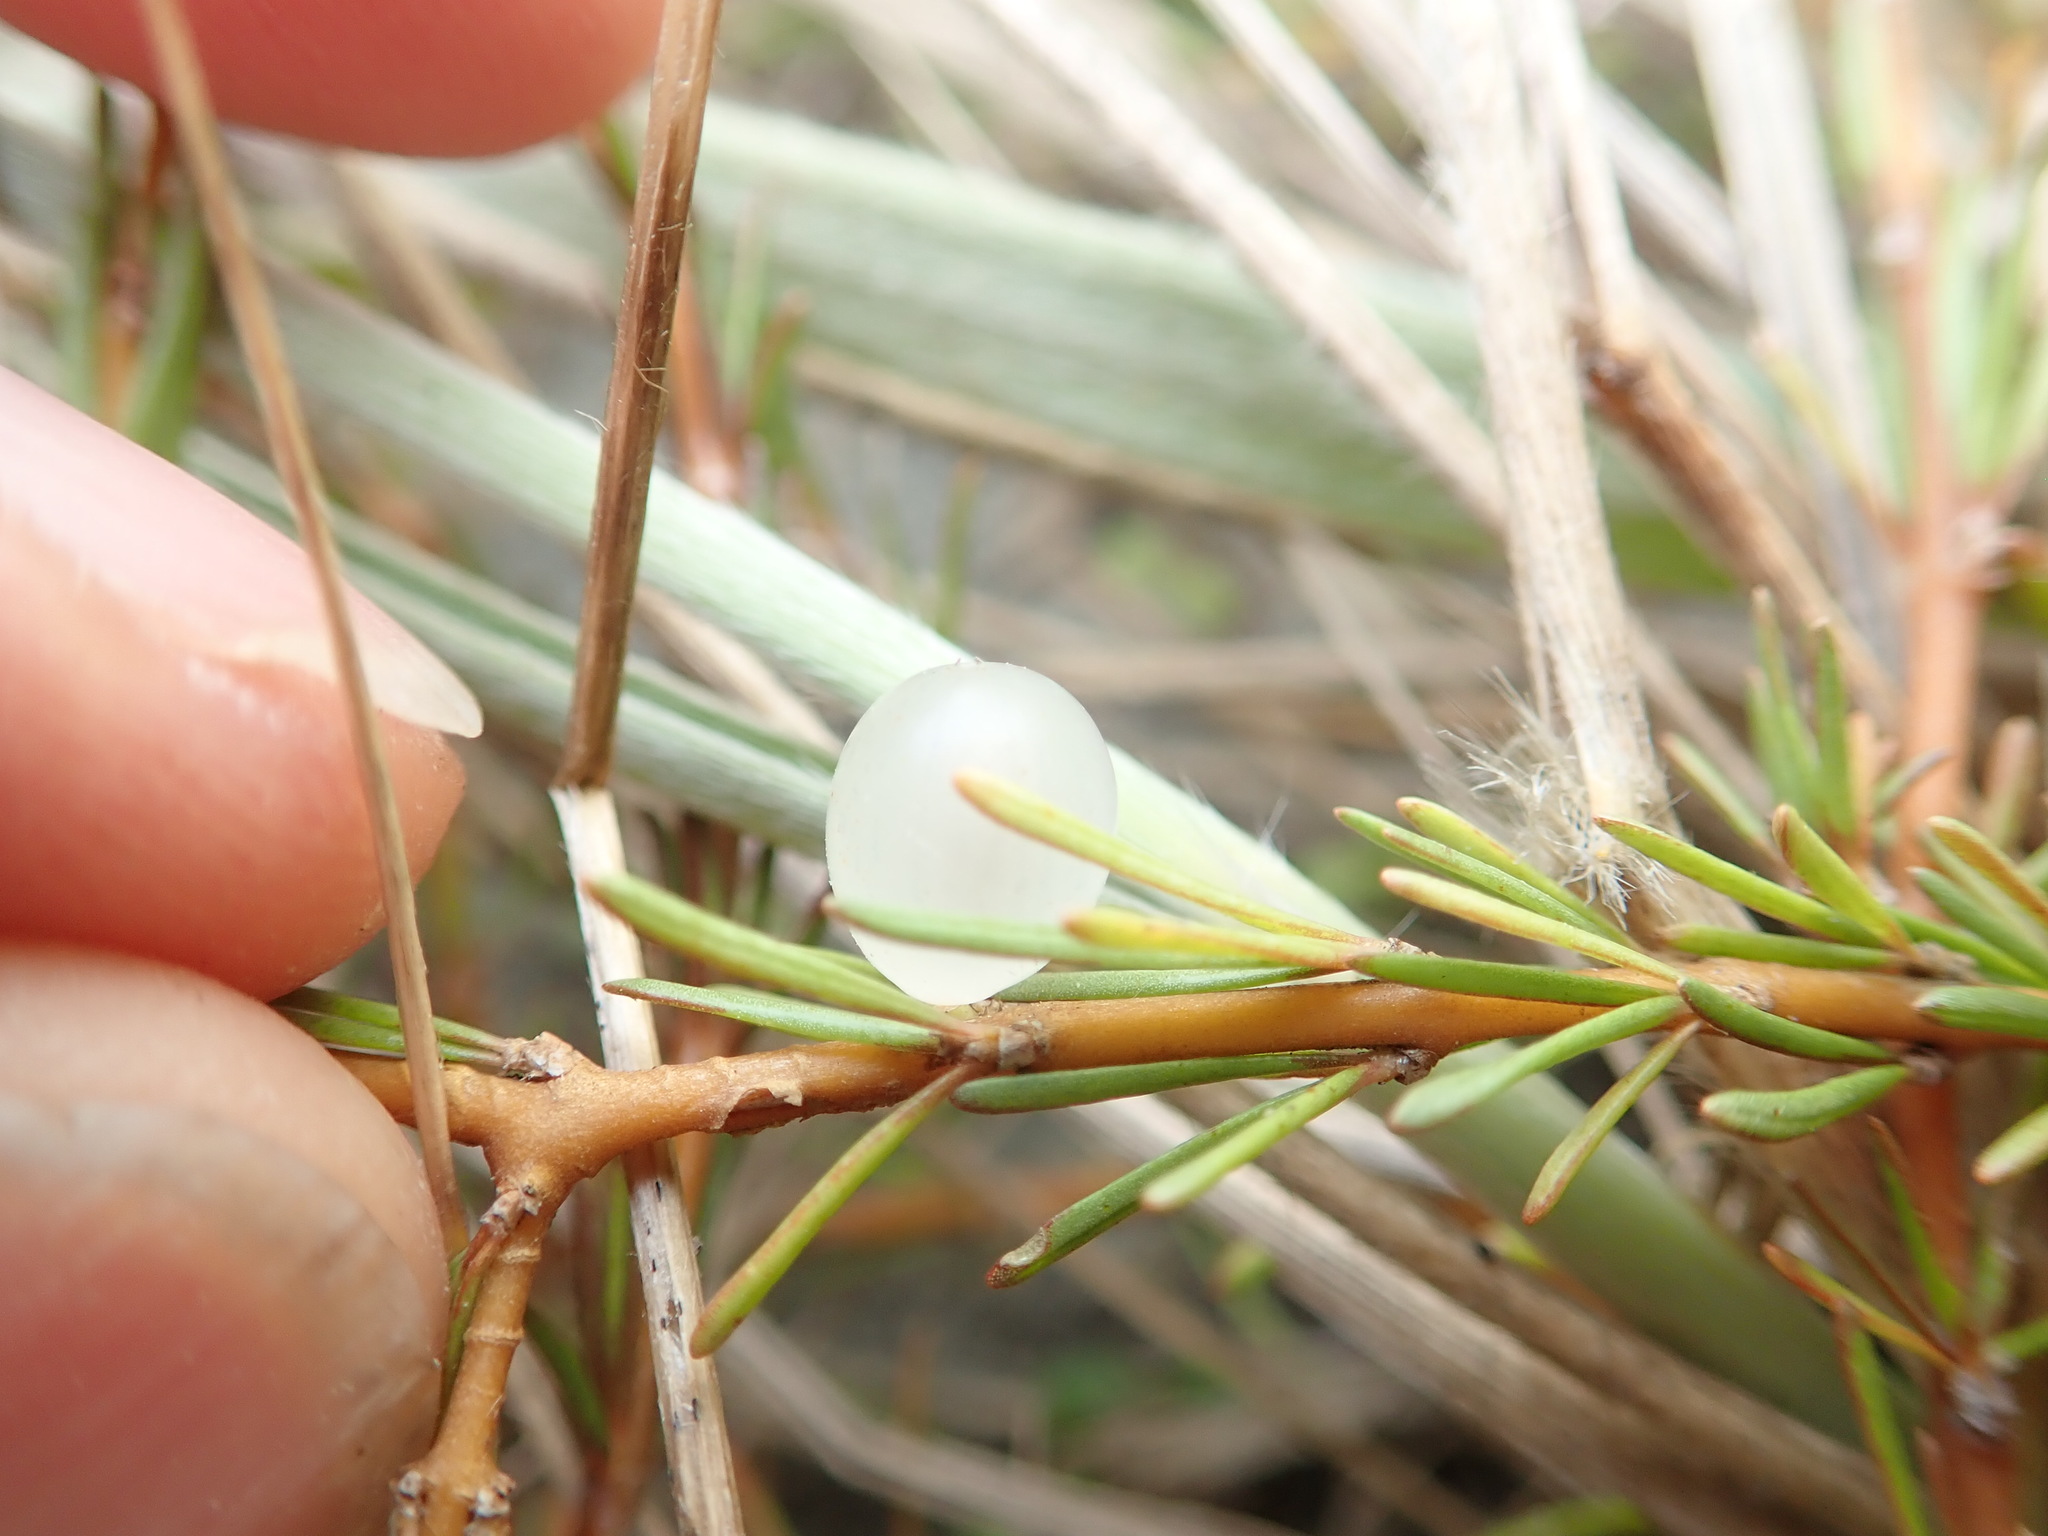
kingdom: Plantae
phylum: Tracheophyta
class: Magnoliopsida
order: Gentianales
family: Rubiaceae
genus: Coprosma
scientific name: Coprosma acerosa
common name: Sand coprosma
